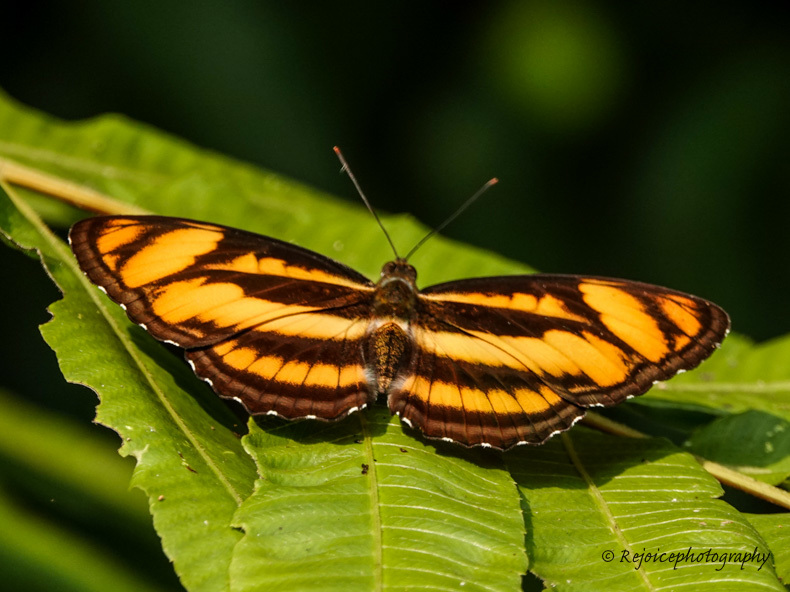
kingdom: Animalia
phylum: Arthropoda
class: Insecta
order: Lepidoptera
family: Nymphalidae
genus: Parathyma
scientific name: Parathyma nefte
